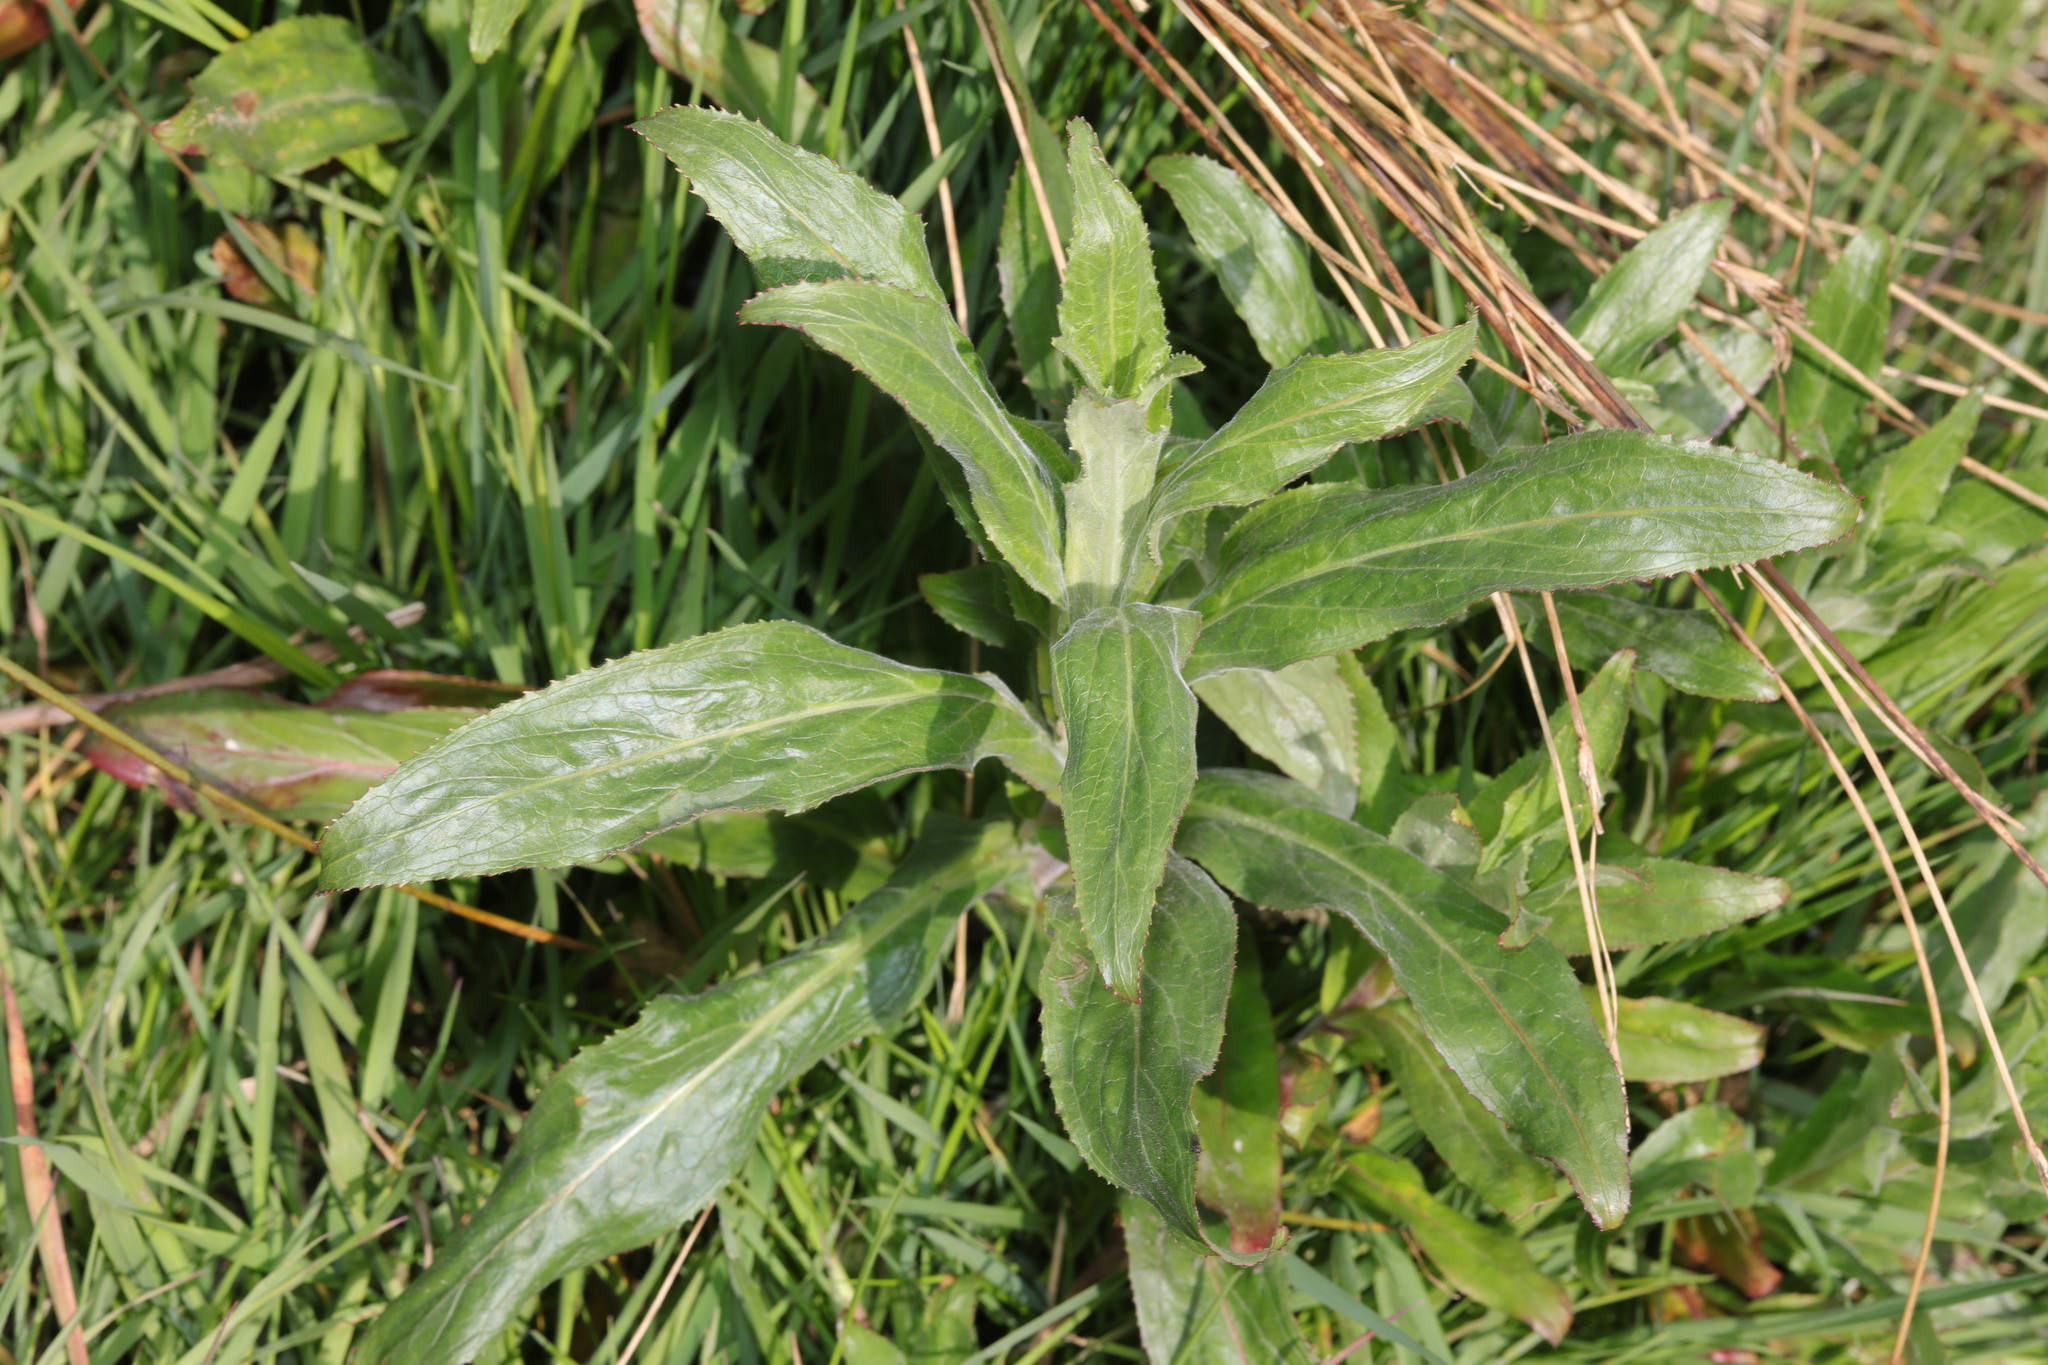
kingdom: Plantae
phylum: Tracheophyta
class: Magnoliopsida
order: Myrtales
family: Onagraceae
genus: Epilobium
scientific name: Epilobium hirsutum
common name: Great willowherb
